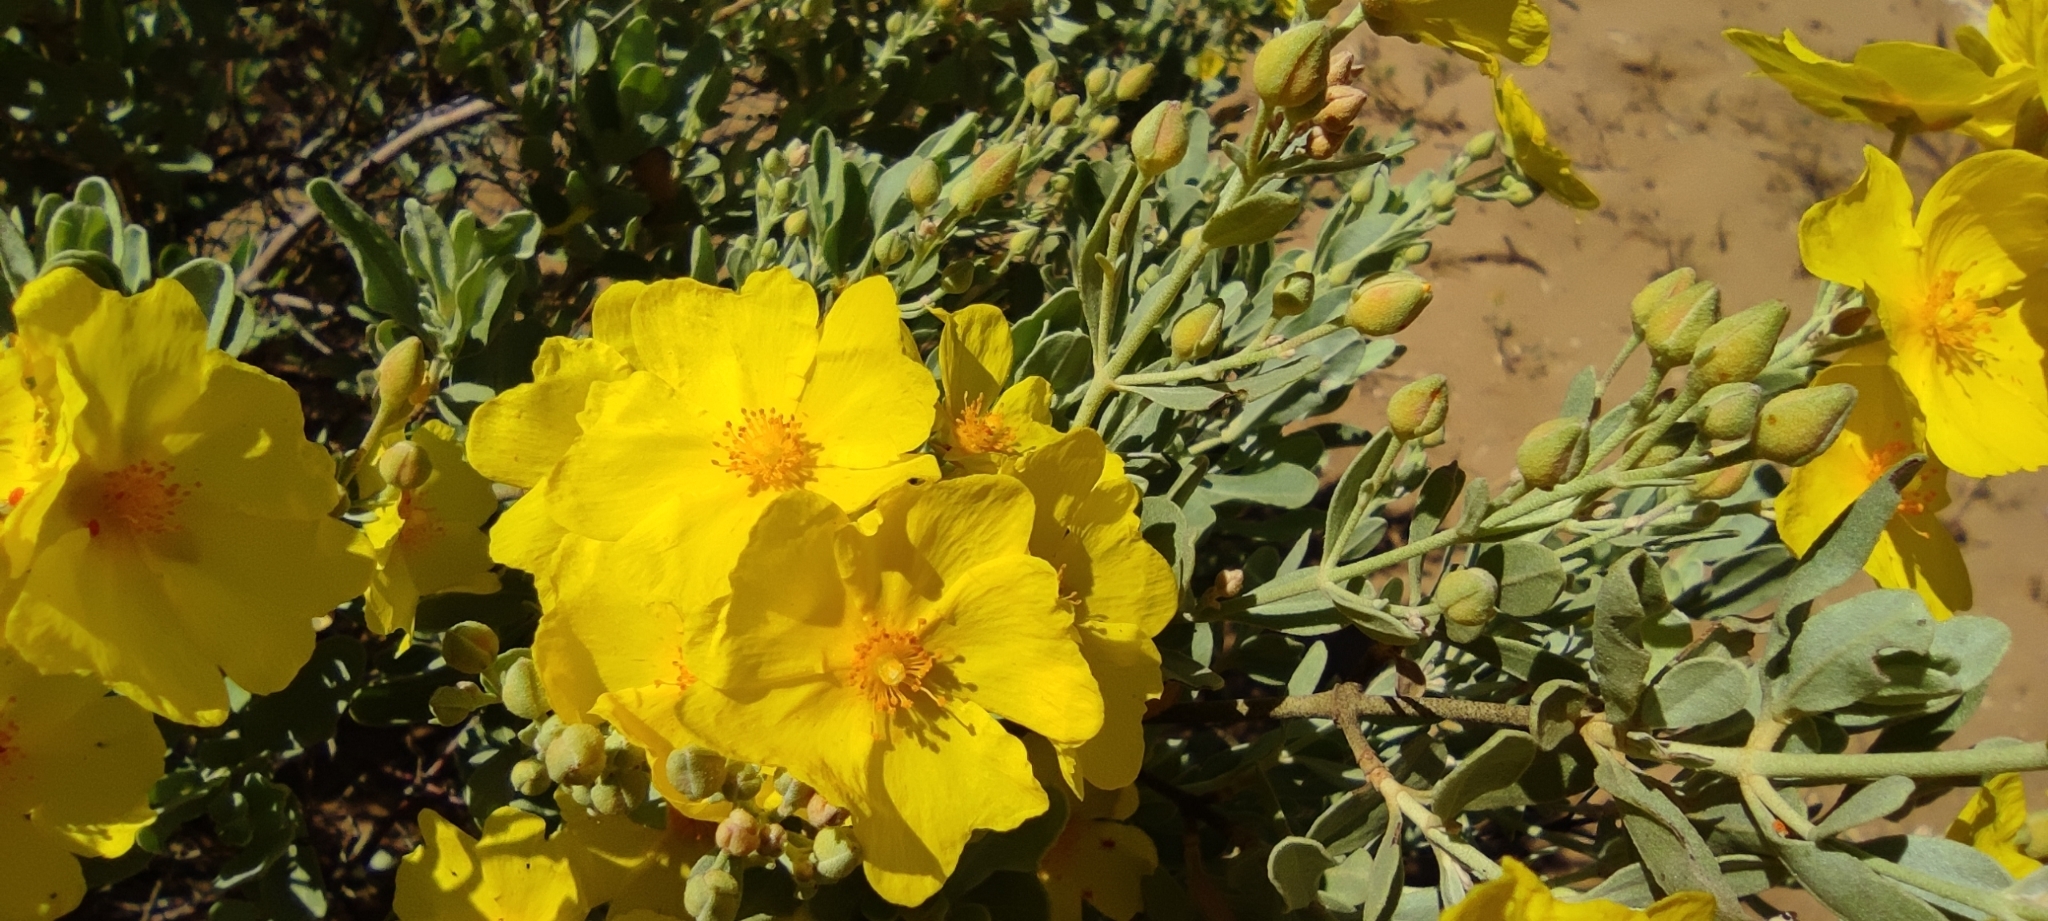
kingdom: Plantae
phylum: Tracheophyta
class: Magnoliopsida
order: Malvales
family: Cistaceae
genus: Halimium
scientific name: Halimium halimifolium
